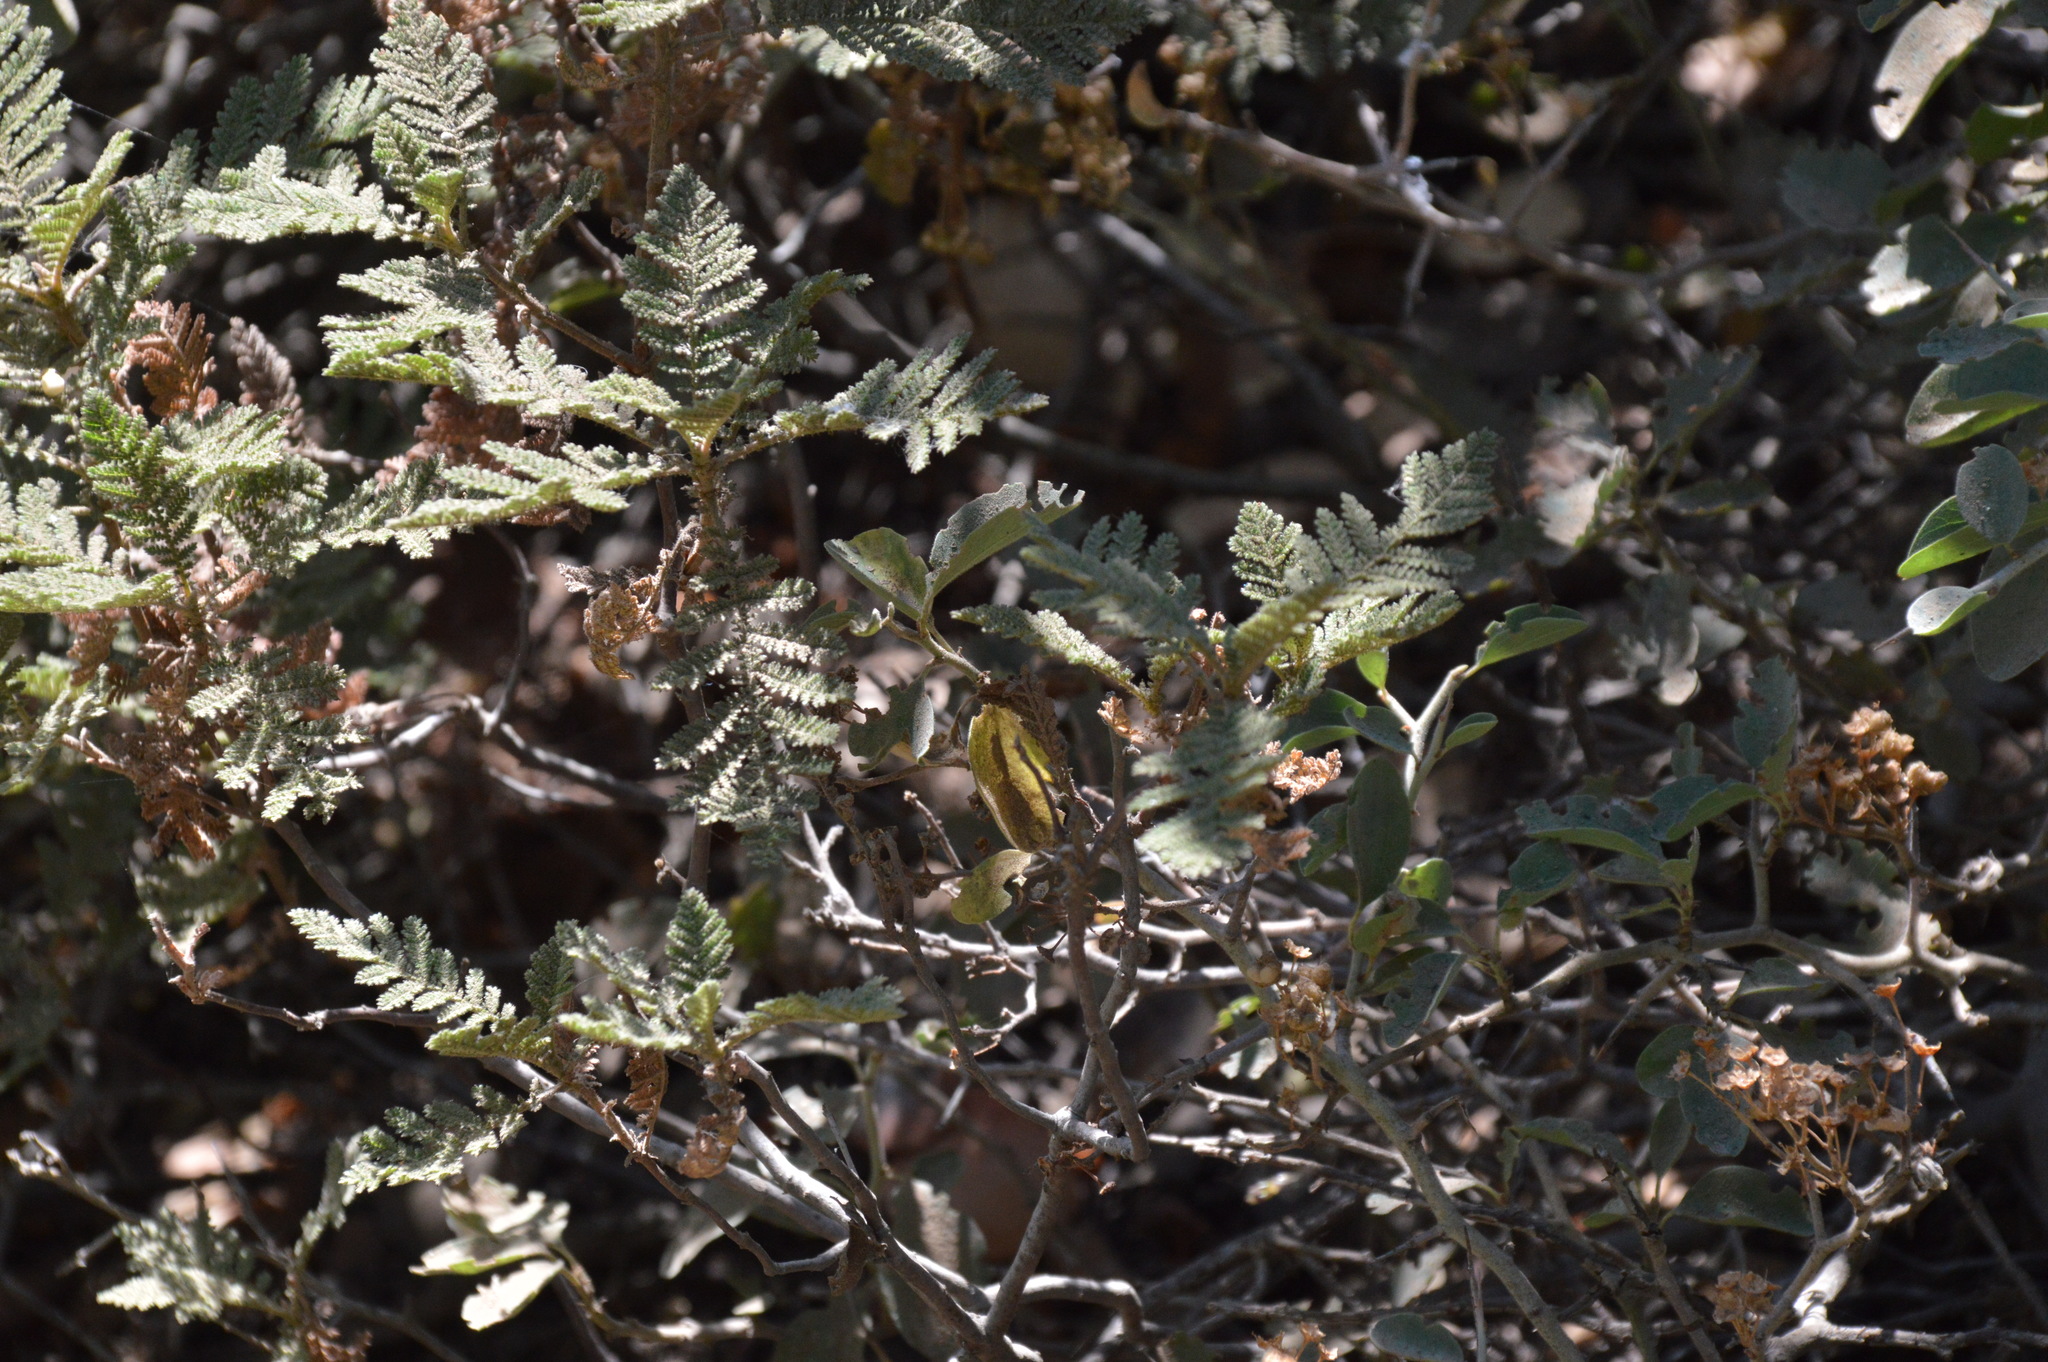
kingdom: Plantae
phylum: Tracheophyta
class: Magnoliopsida
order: Rosales
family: Rosaceae
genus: Chamaebatia
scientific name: Chamaebatia foliolosa
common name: Mountain misery
